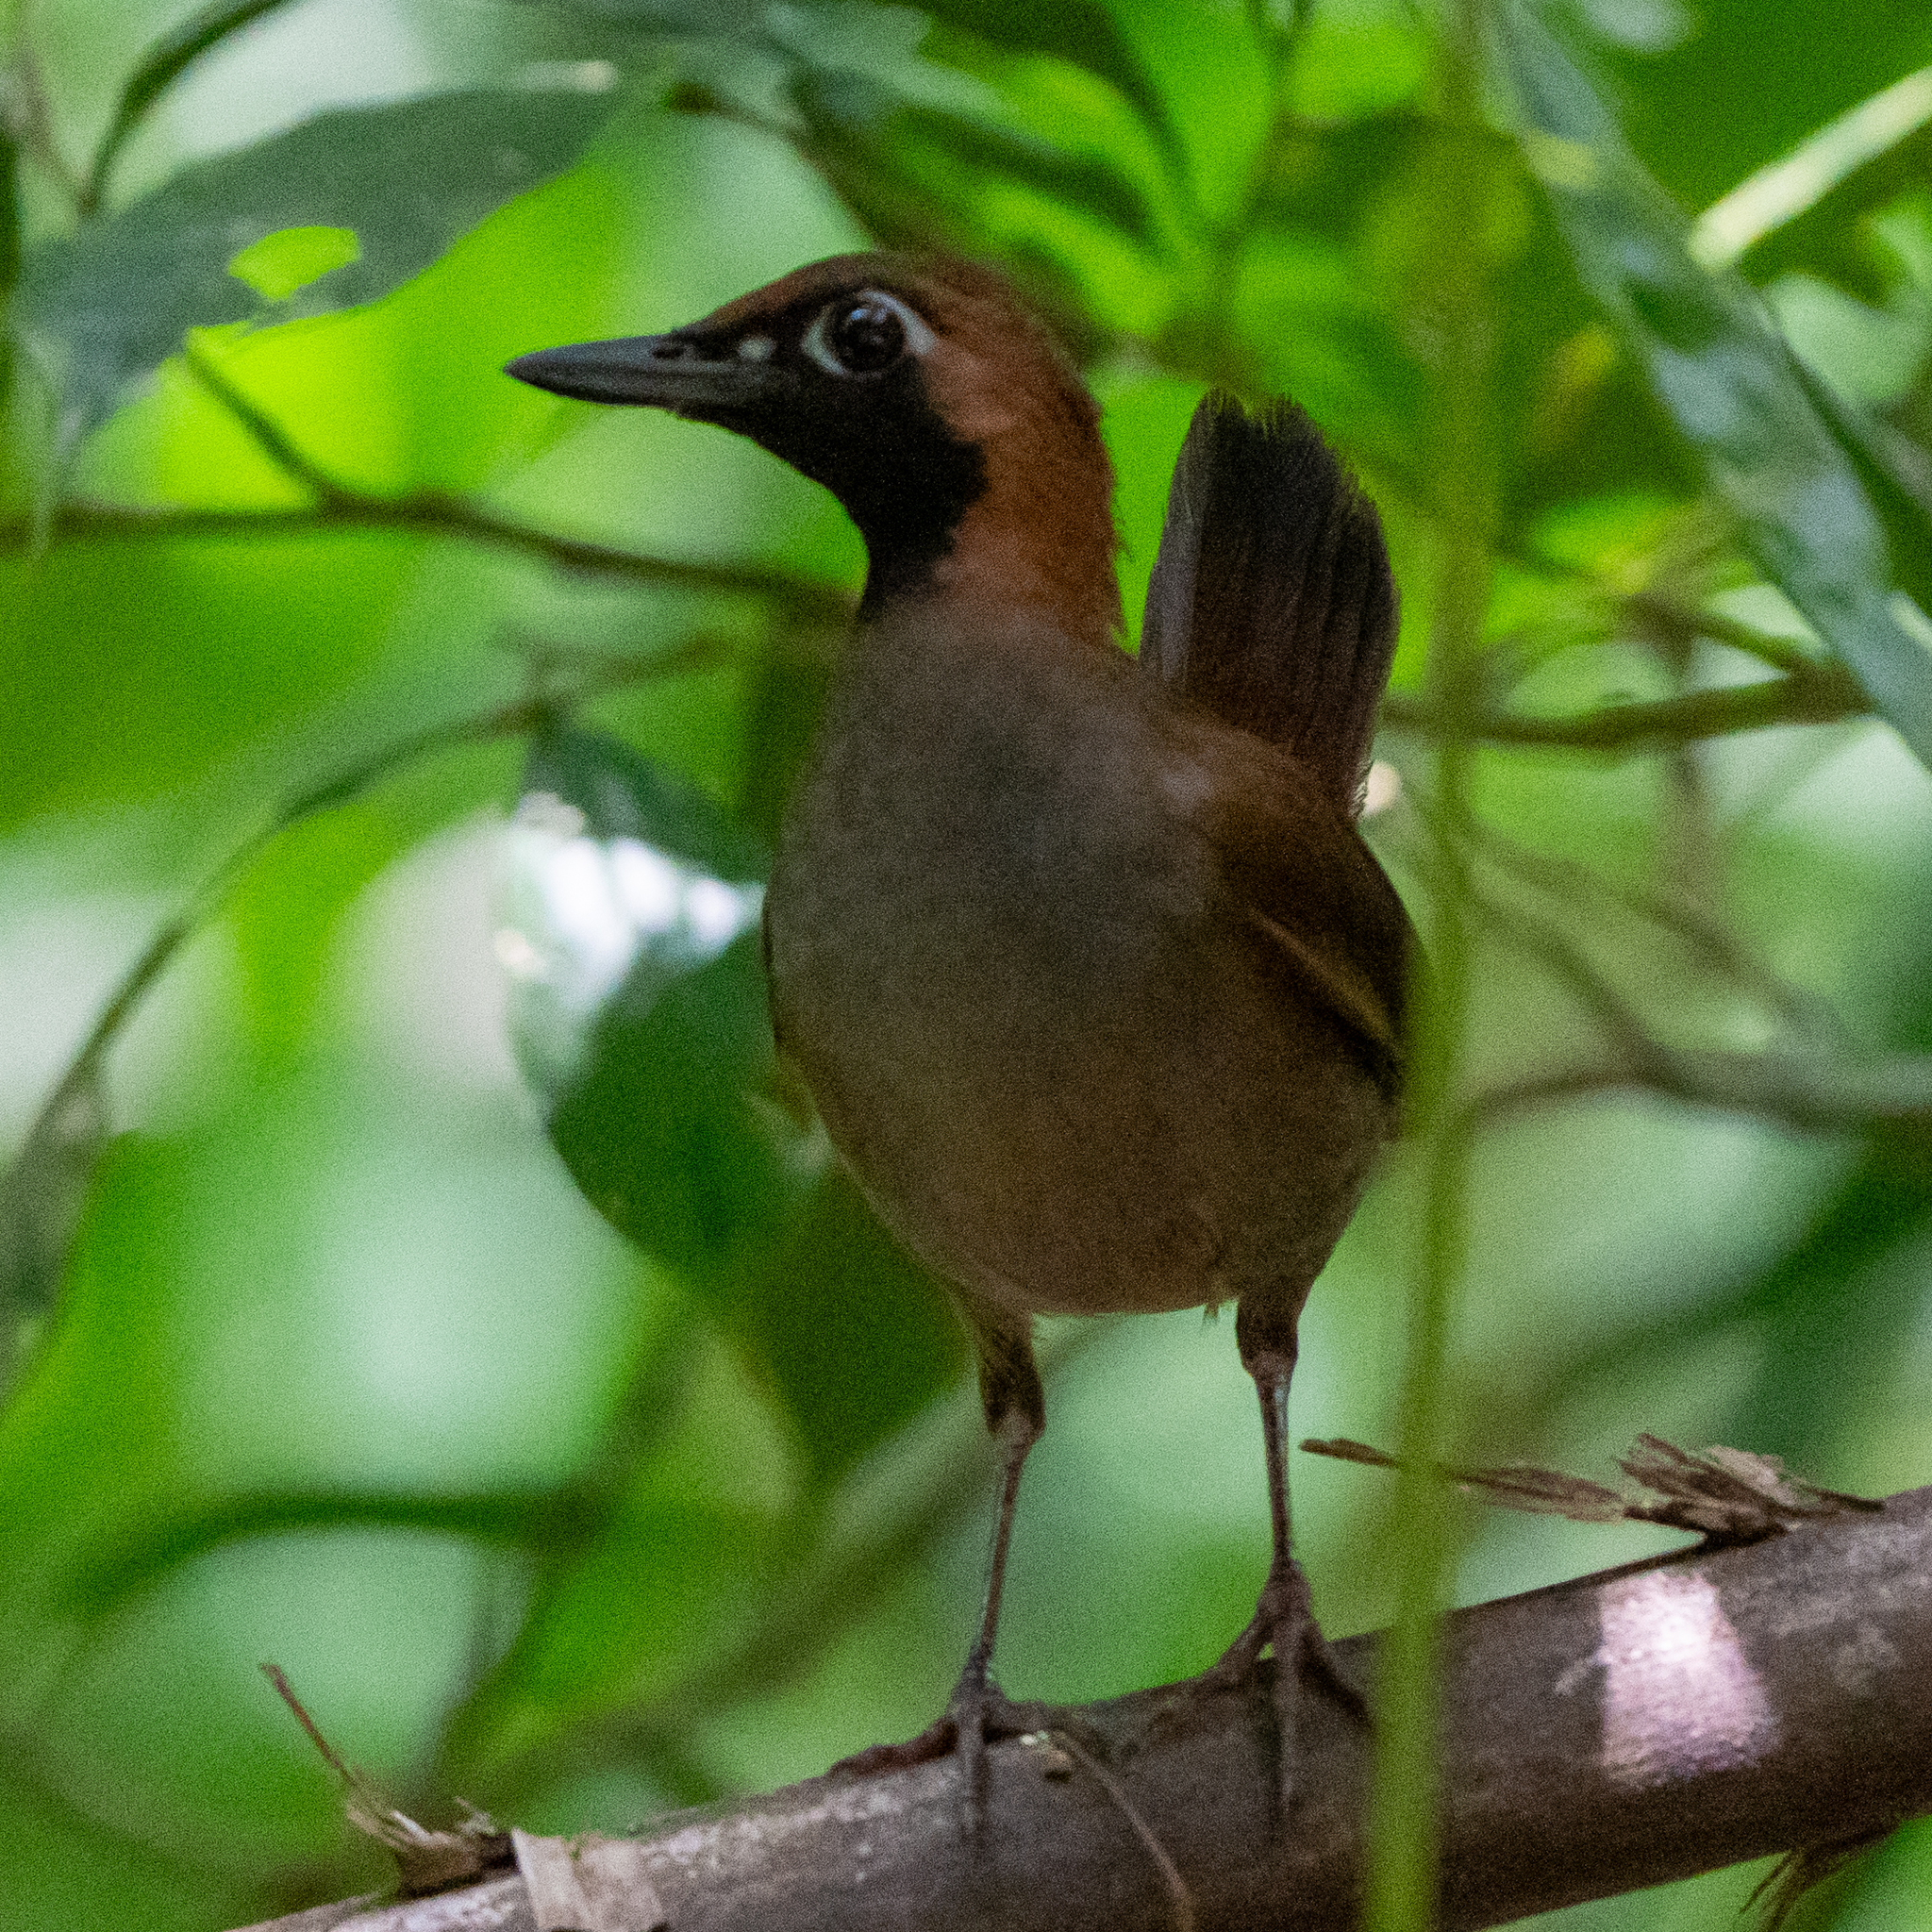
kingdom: Animalia
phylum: Chordata
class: Aves
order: Passeriformes
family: Formicariidae
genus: Formicarius
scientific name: Formicarius analis
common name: Black-faced antthrush
